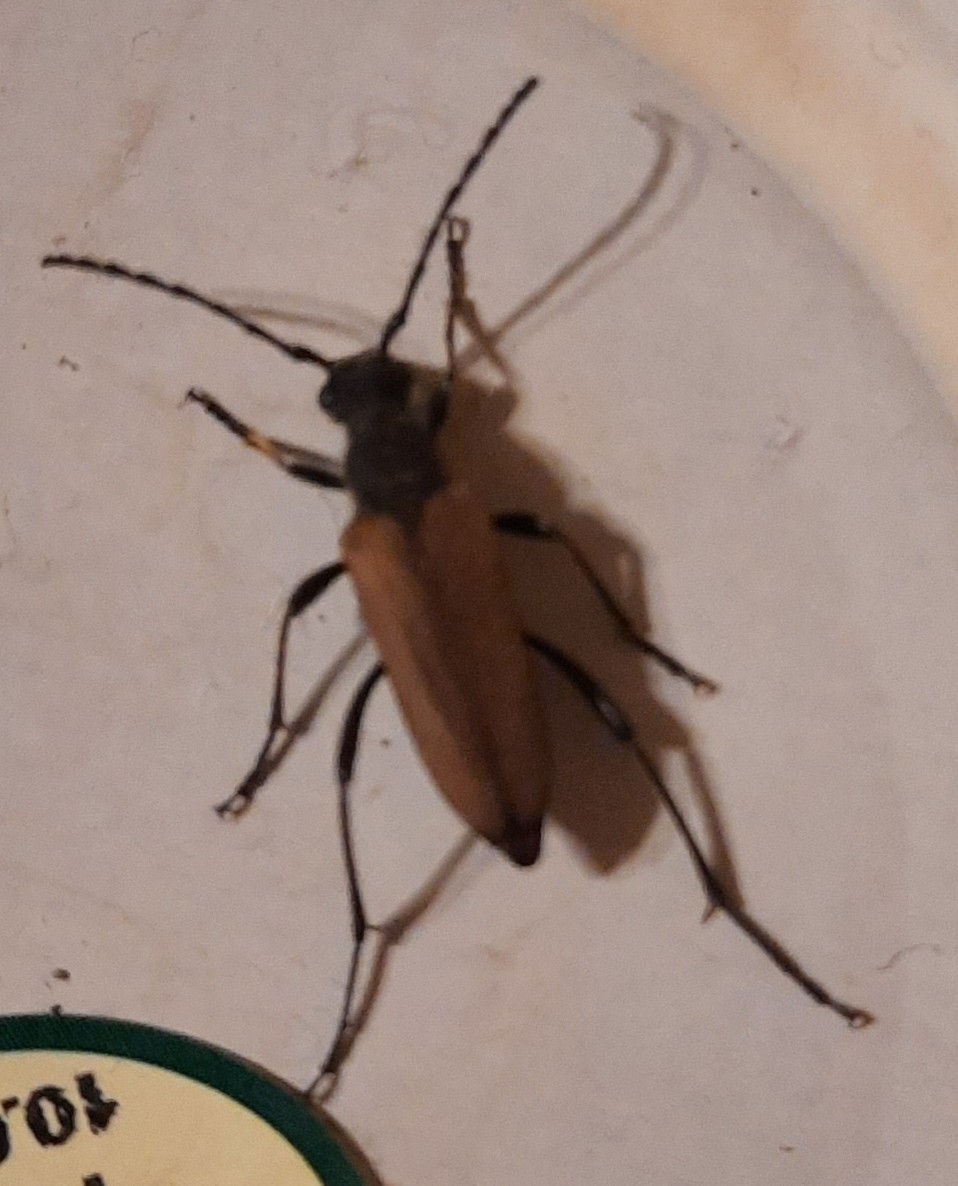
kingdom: Animalia
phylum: Arthropoda
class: Insecta
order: Coleoptera
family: Cerambycidae
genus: Anastrangalia
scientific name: Anastrangalia reyi
